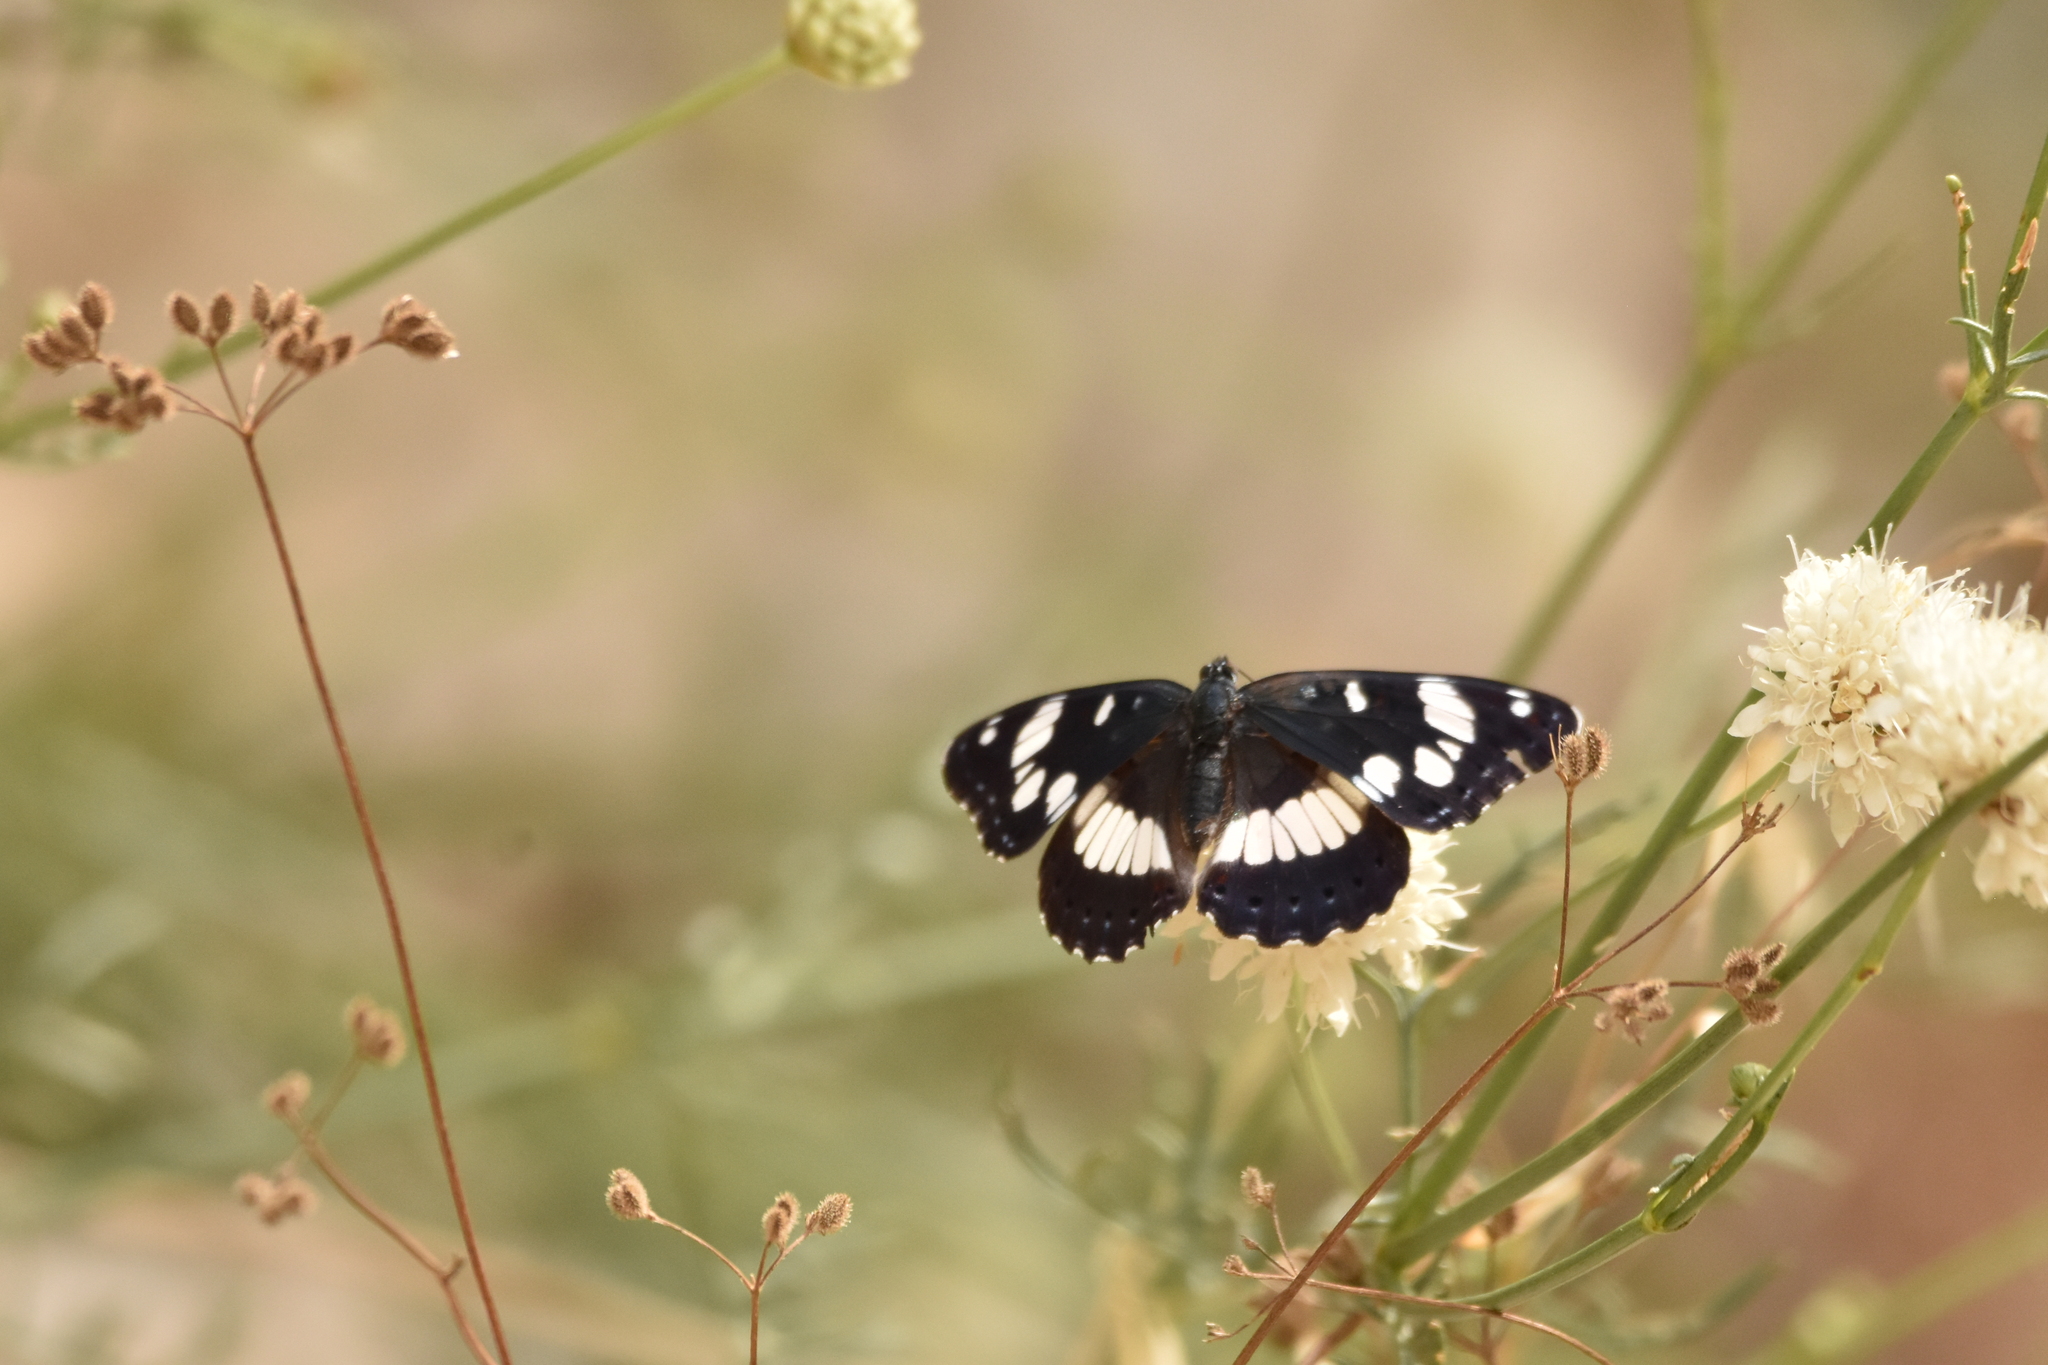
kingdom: Animalia
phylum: Arthropoda
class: Insecta
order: Lepidoptera
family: Nymphalidae
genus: Limenitis
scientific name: Limenitis reducta
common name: Southern white admiral
